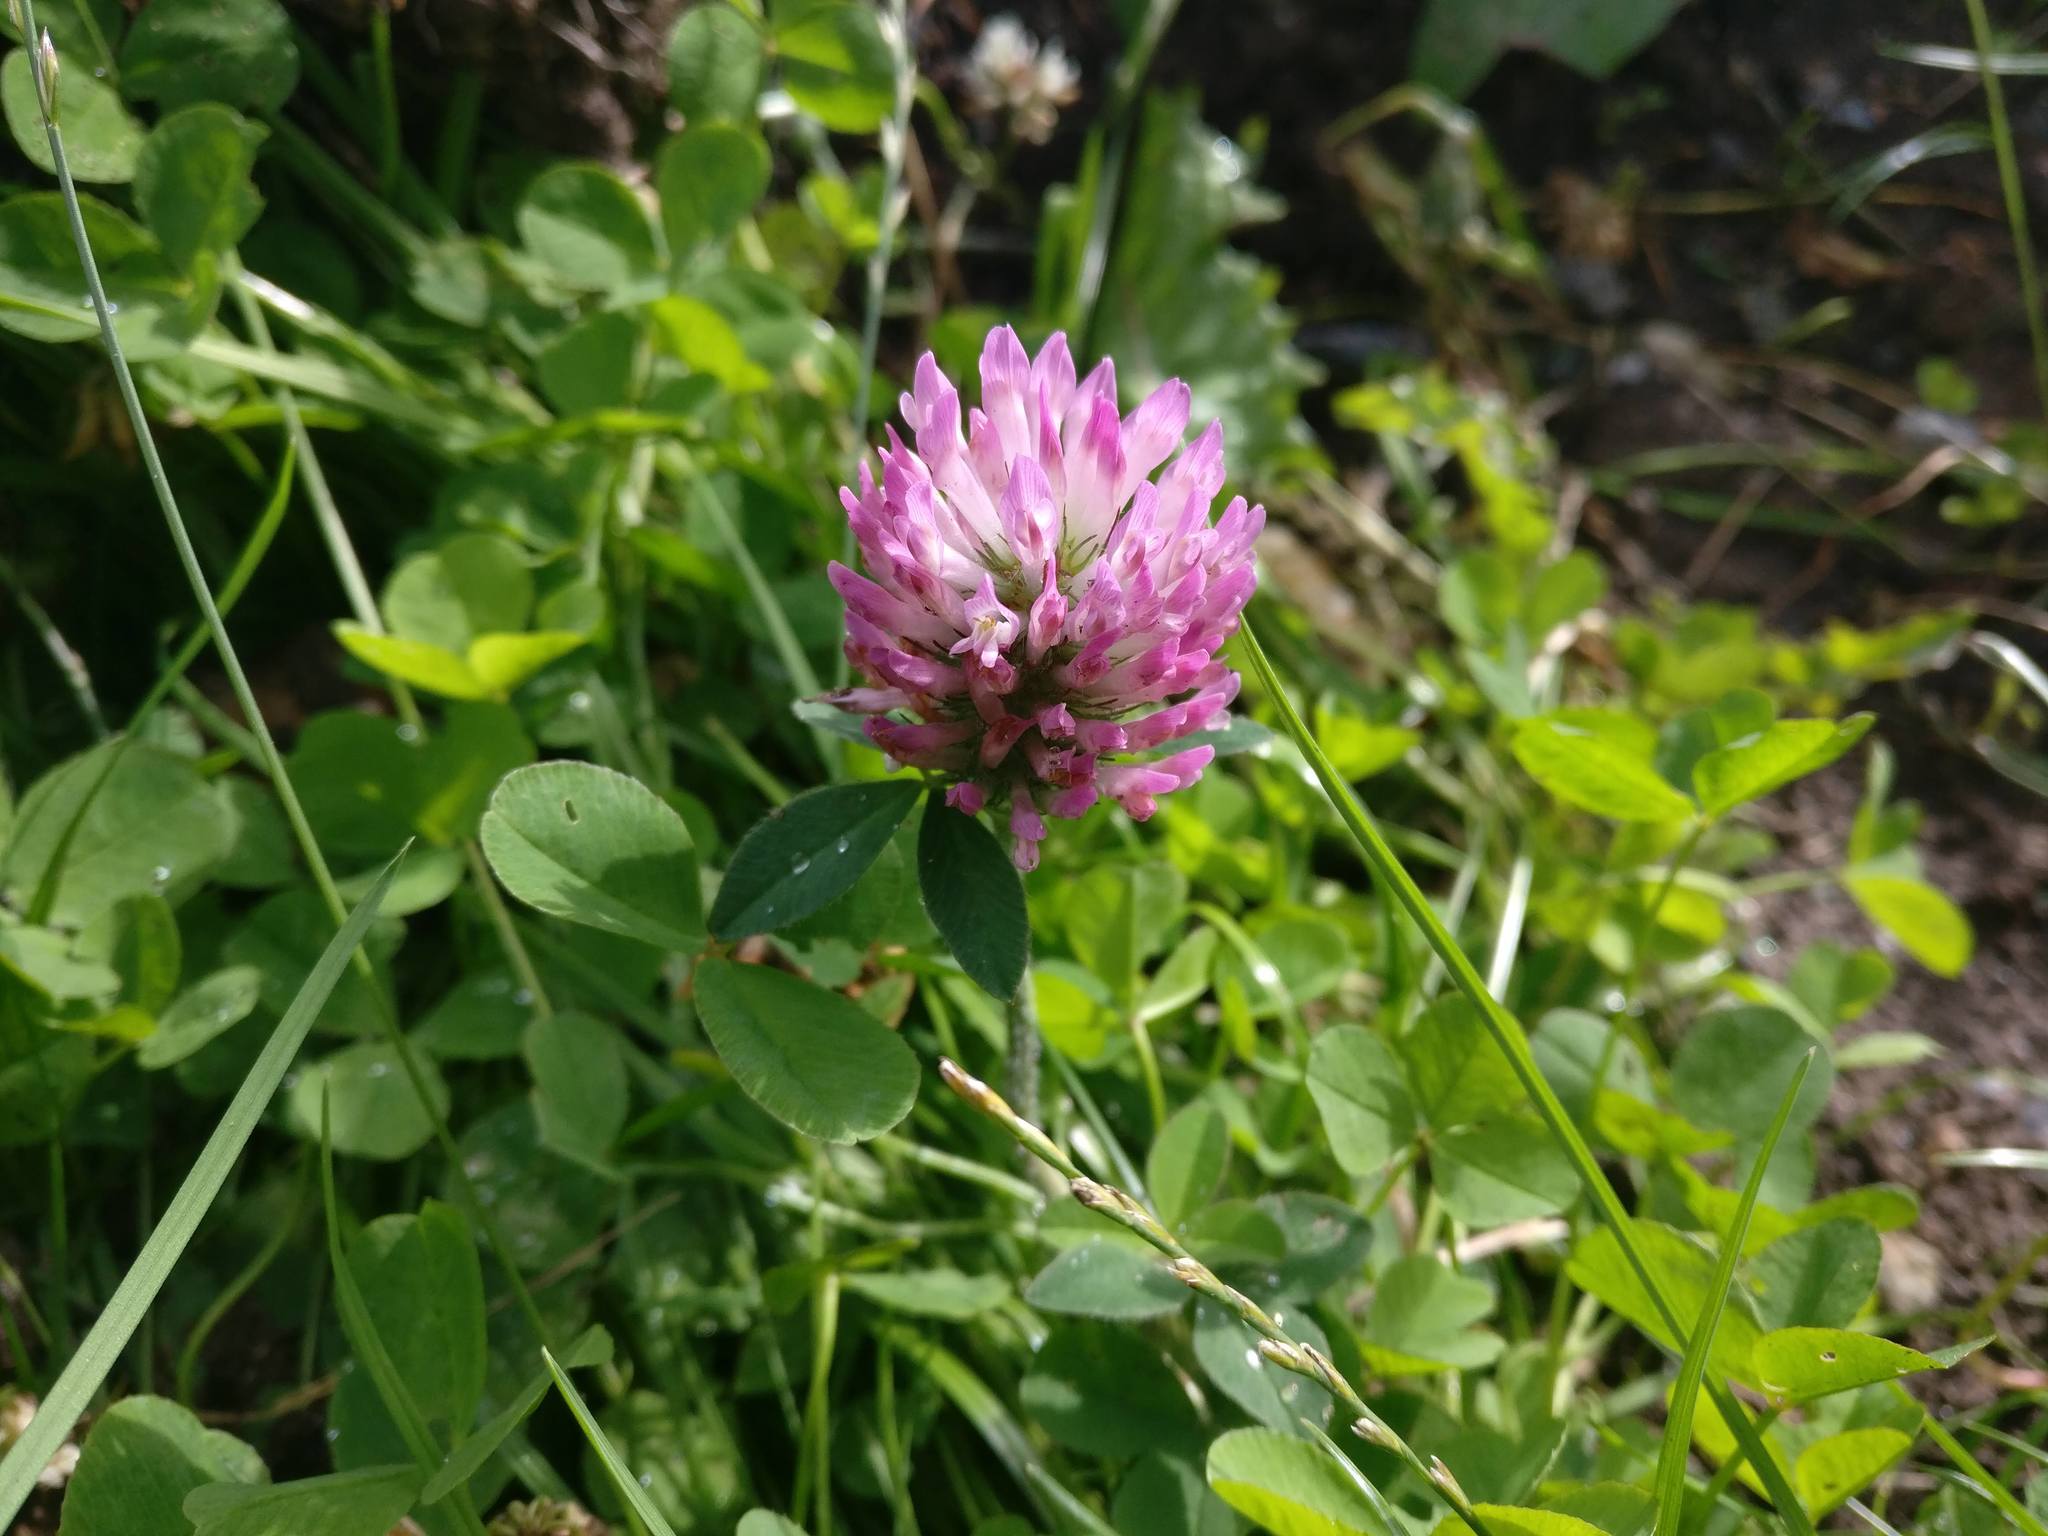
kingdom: Plantae
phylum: Tracheophyta
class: Magnoliopsida
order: Fabales
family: Fabaceae
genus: Trifolium
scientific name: Trifolium pratense
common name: Red clover
